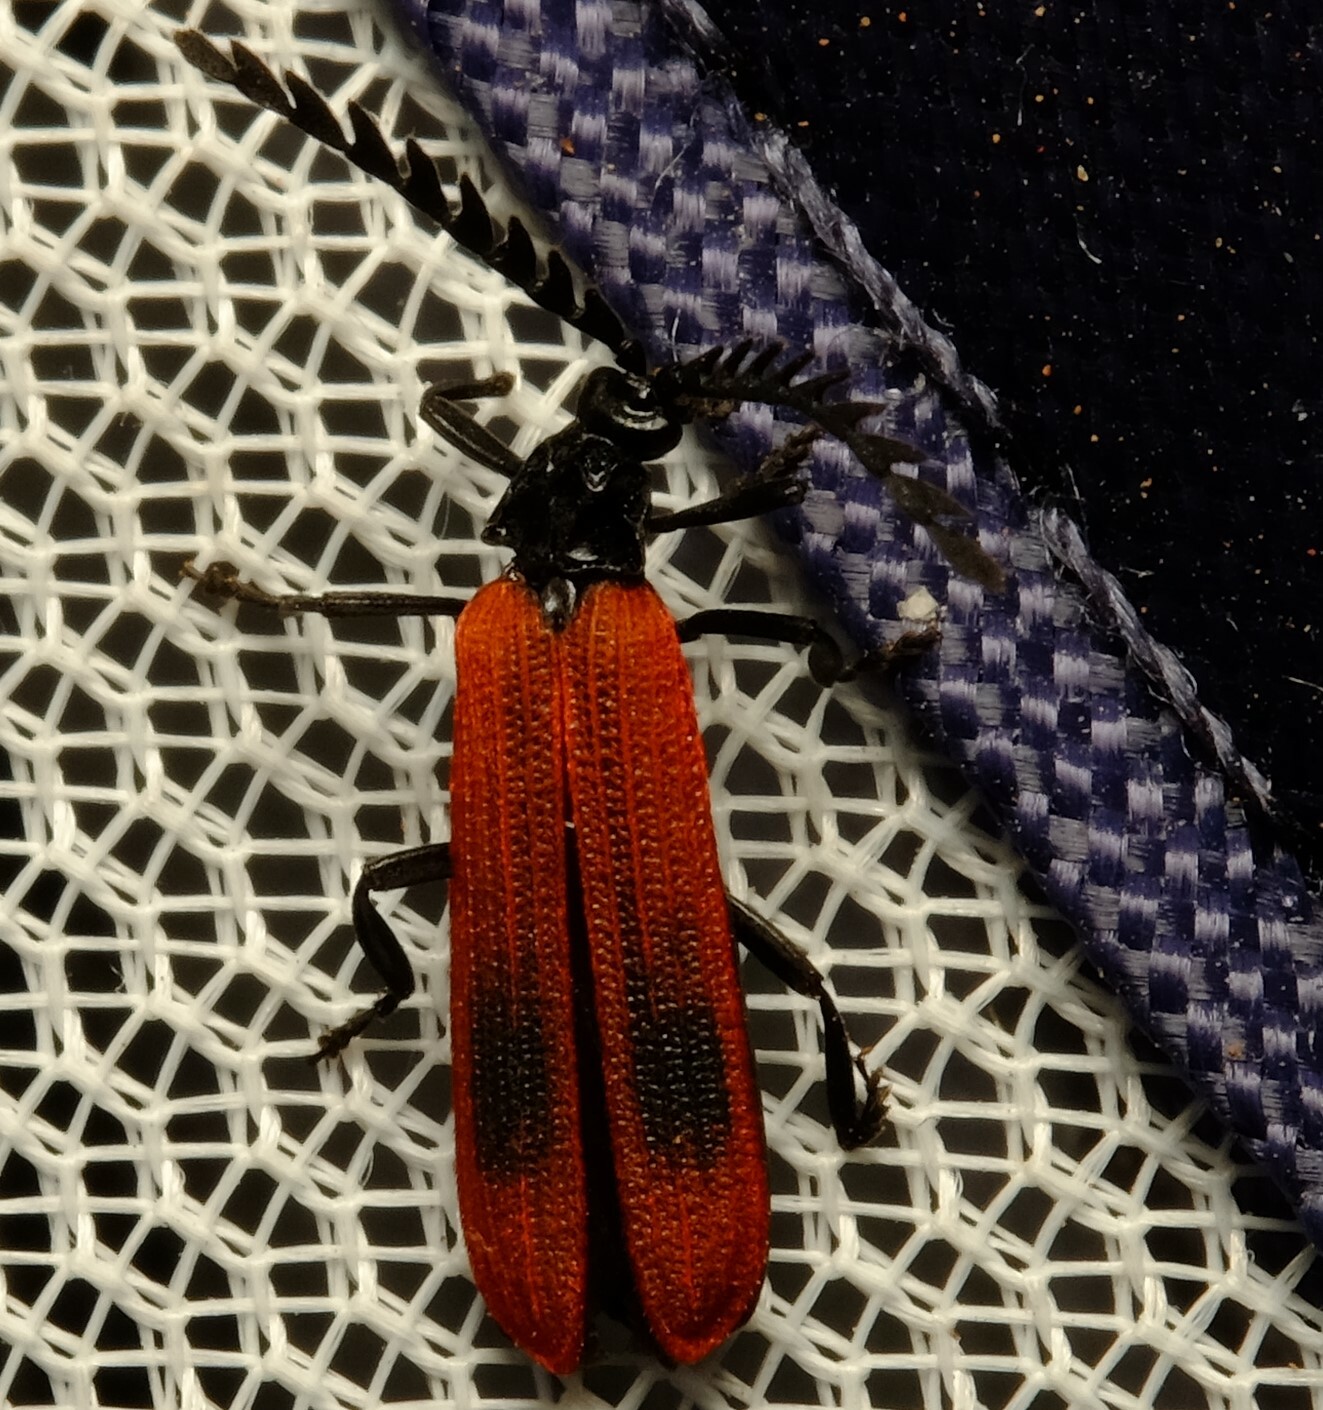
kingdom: Animalia
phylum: Arthropoda
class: Insecta
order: Coleoptera
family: Lycidae
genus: Porrostoma
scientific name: Porrostoma rufipenne
